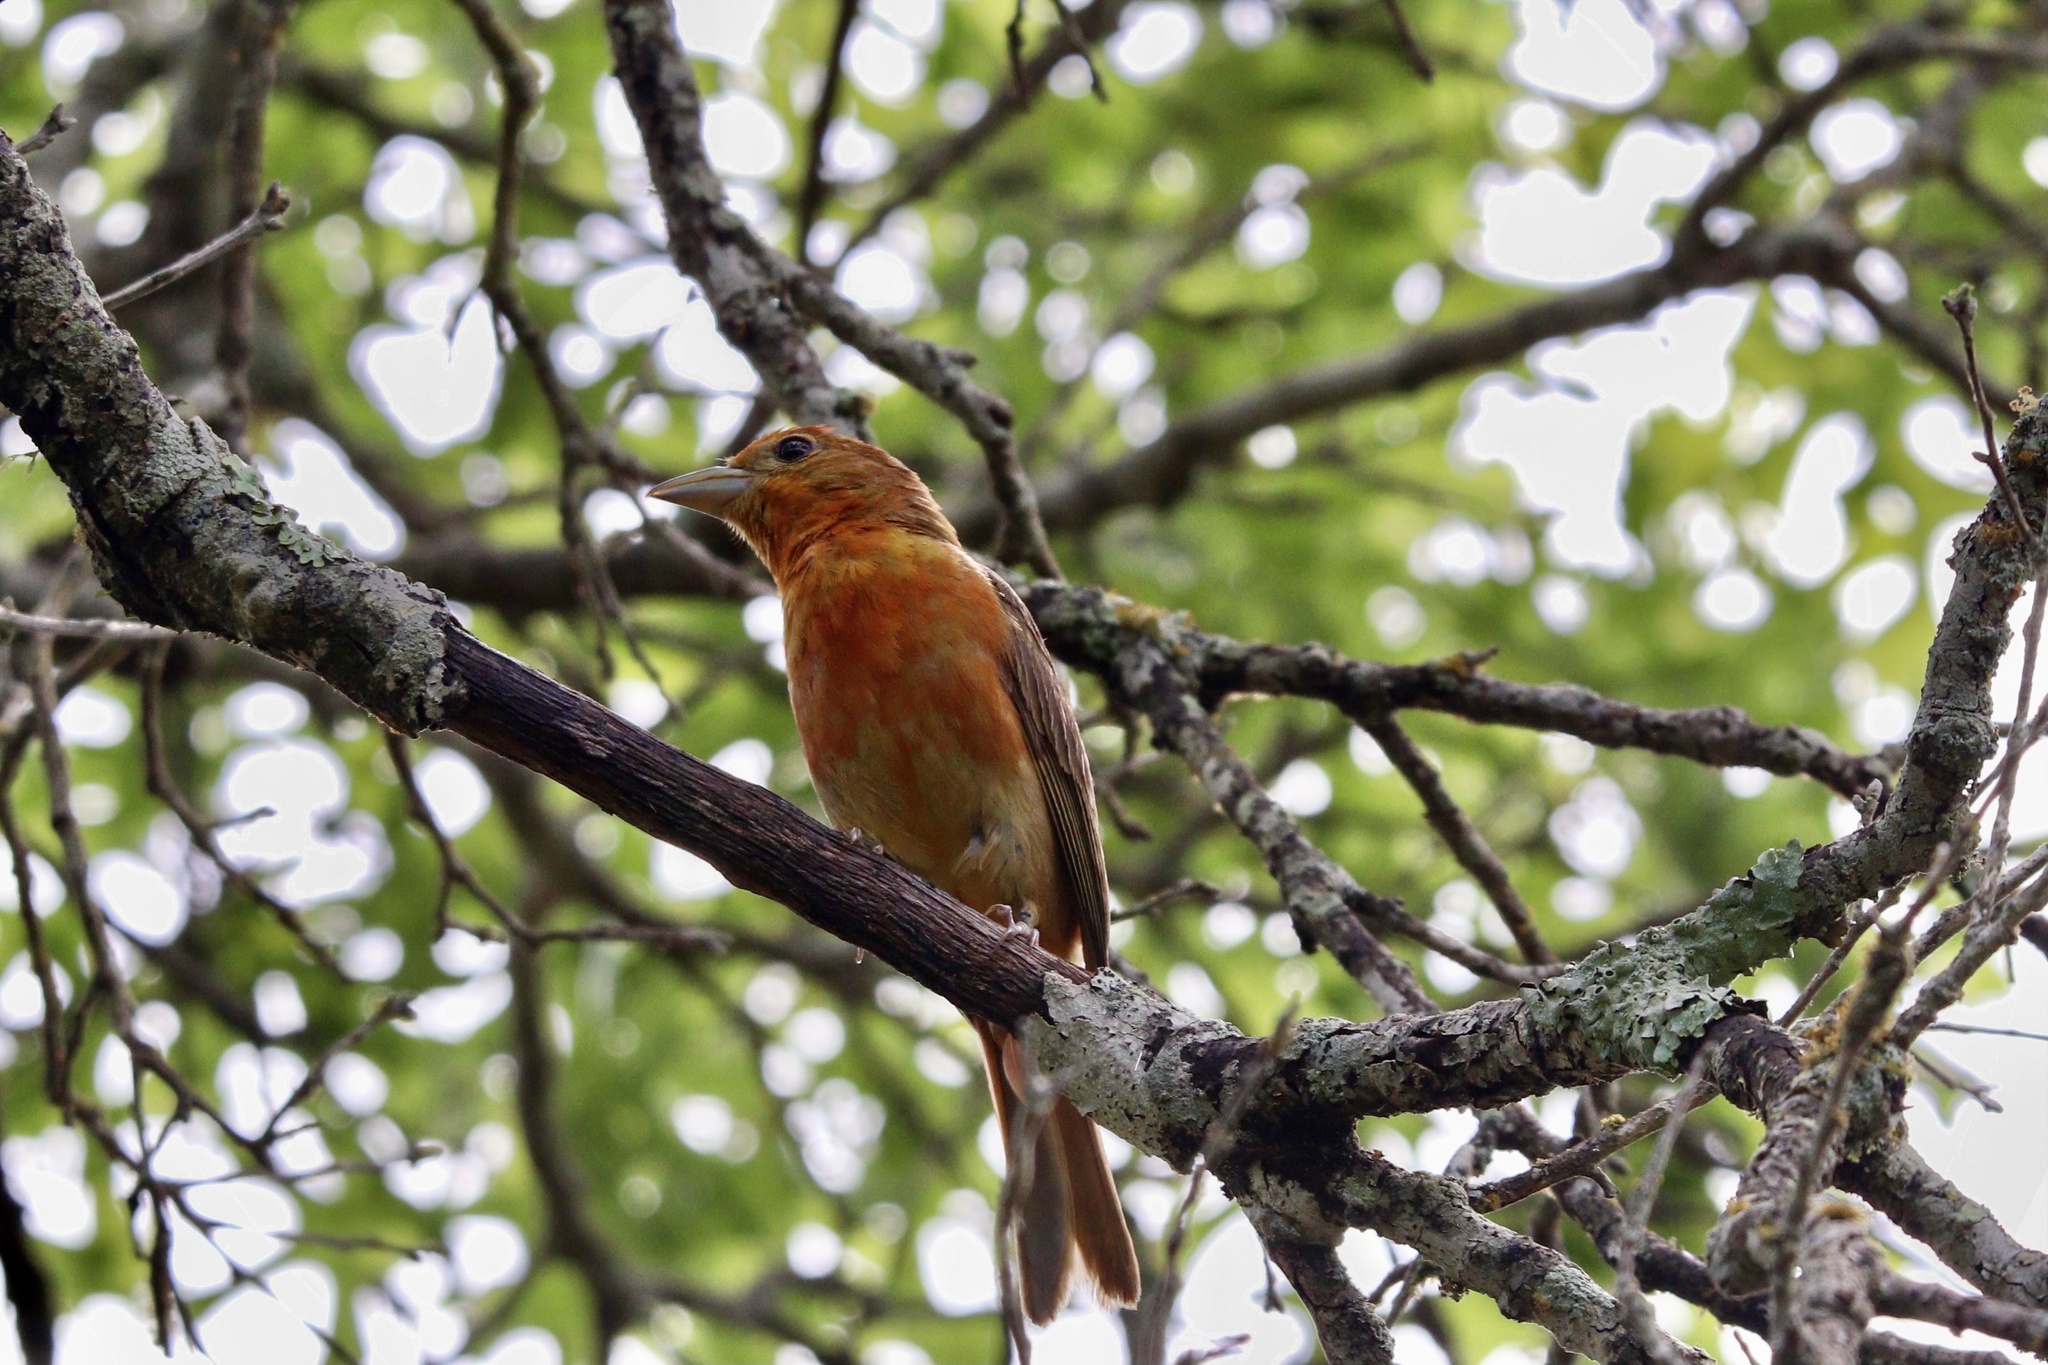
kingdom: Animalia
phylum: Chordata
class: Aves
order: Passeriformes
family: Cardinalidae
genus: Piranga
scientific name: Piranga rubra
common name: Summer tanager
